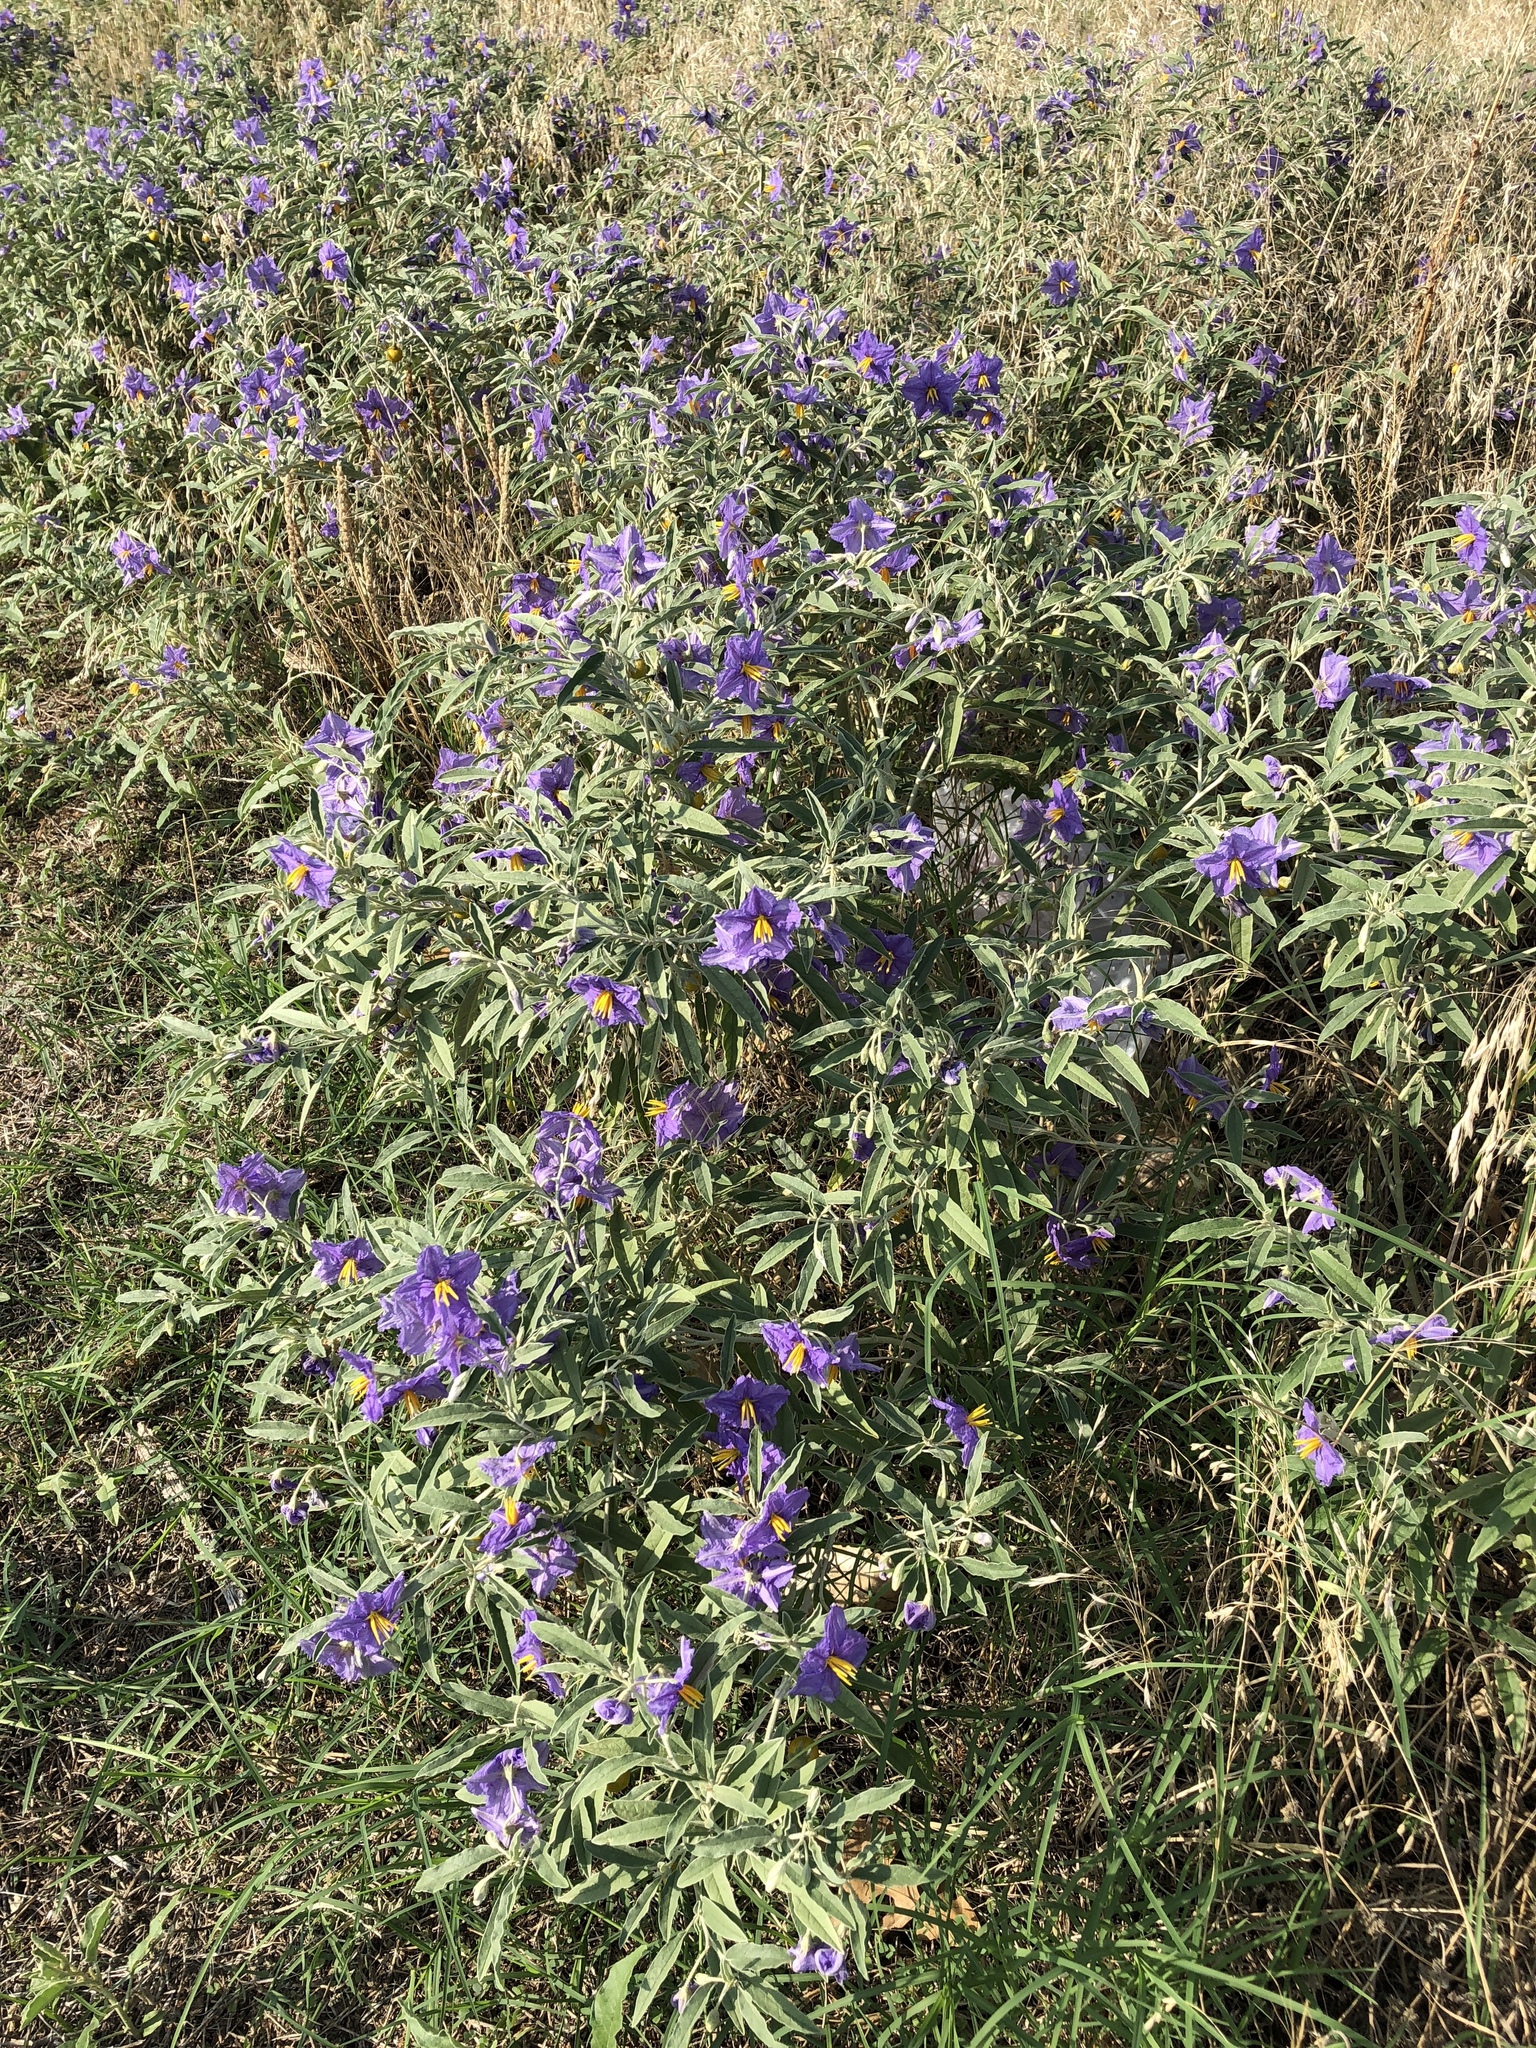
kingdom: Plantae
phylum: Tracheophyta
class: Magnoliopsida
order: Solanales
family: Solanaceae
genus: Solanum
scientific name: Solanum elaeagnifolium
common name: Silverleaf nightshade
